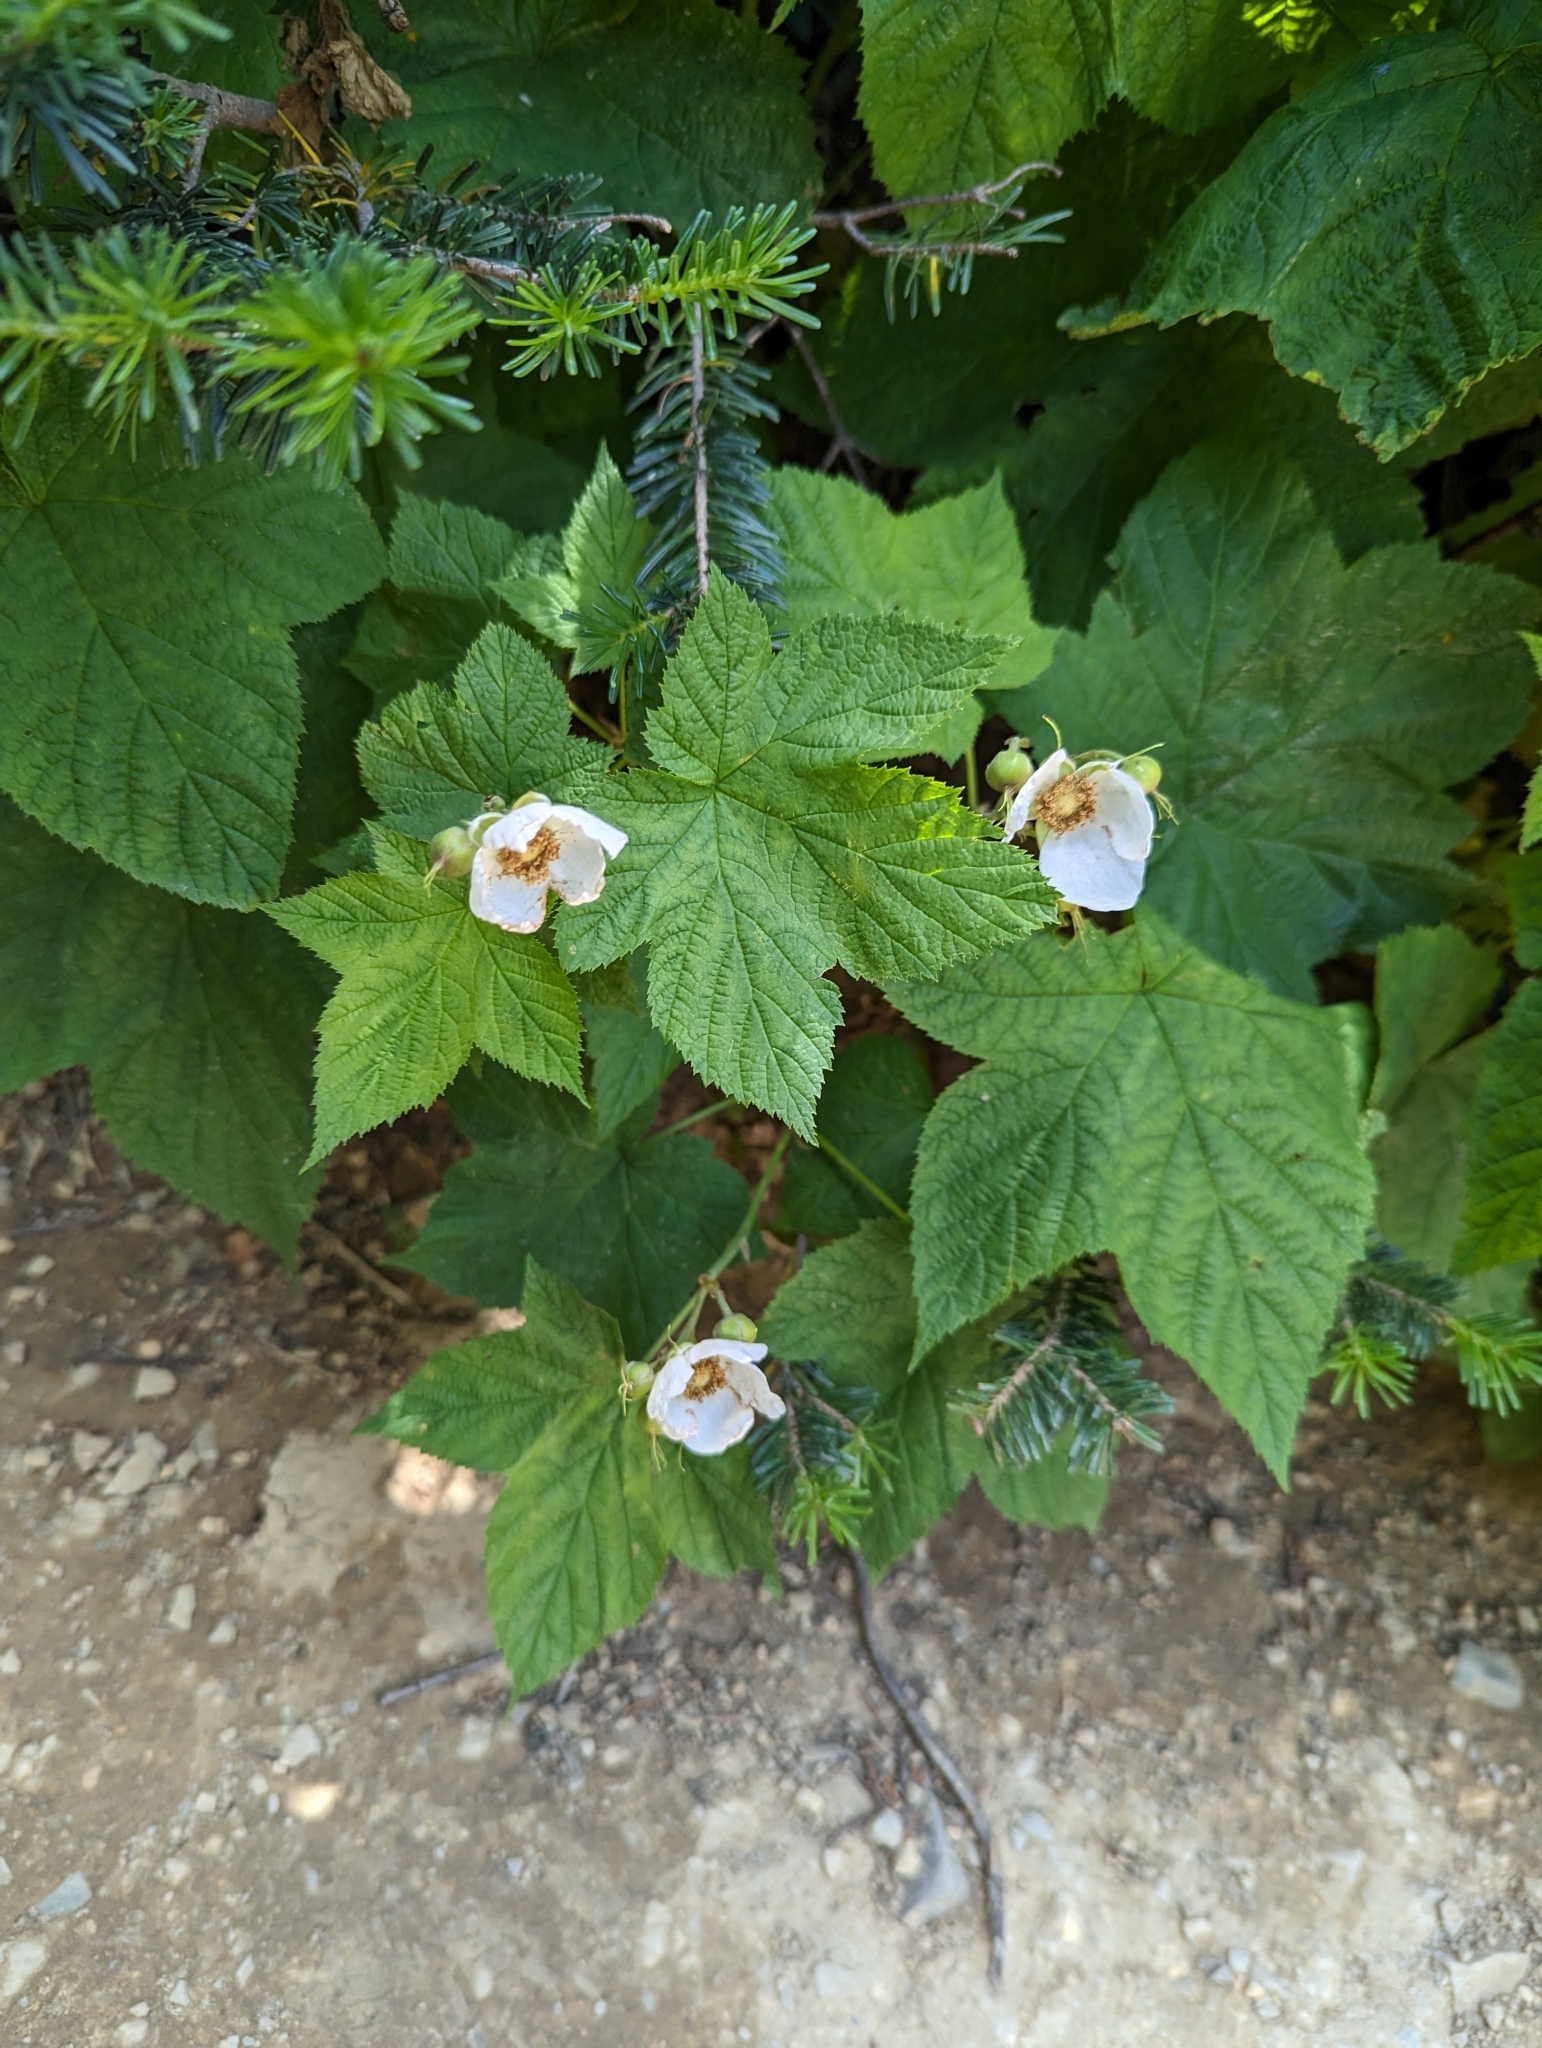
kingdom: Plantae
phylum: Tracheophyta
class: Magnoliopsida
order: Rosales
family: Rosaceae
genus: Rubus
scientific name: Rubus parviflorus
